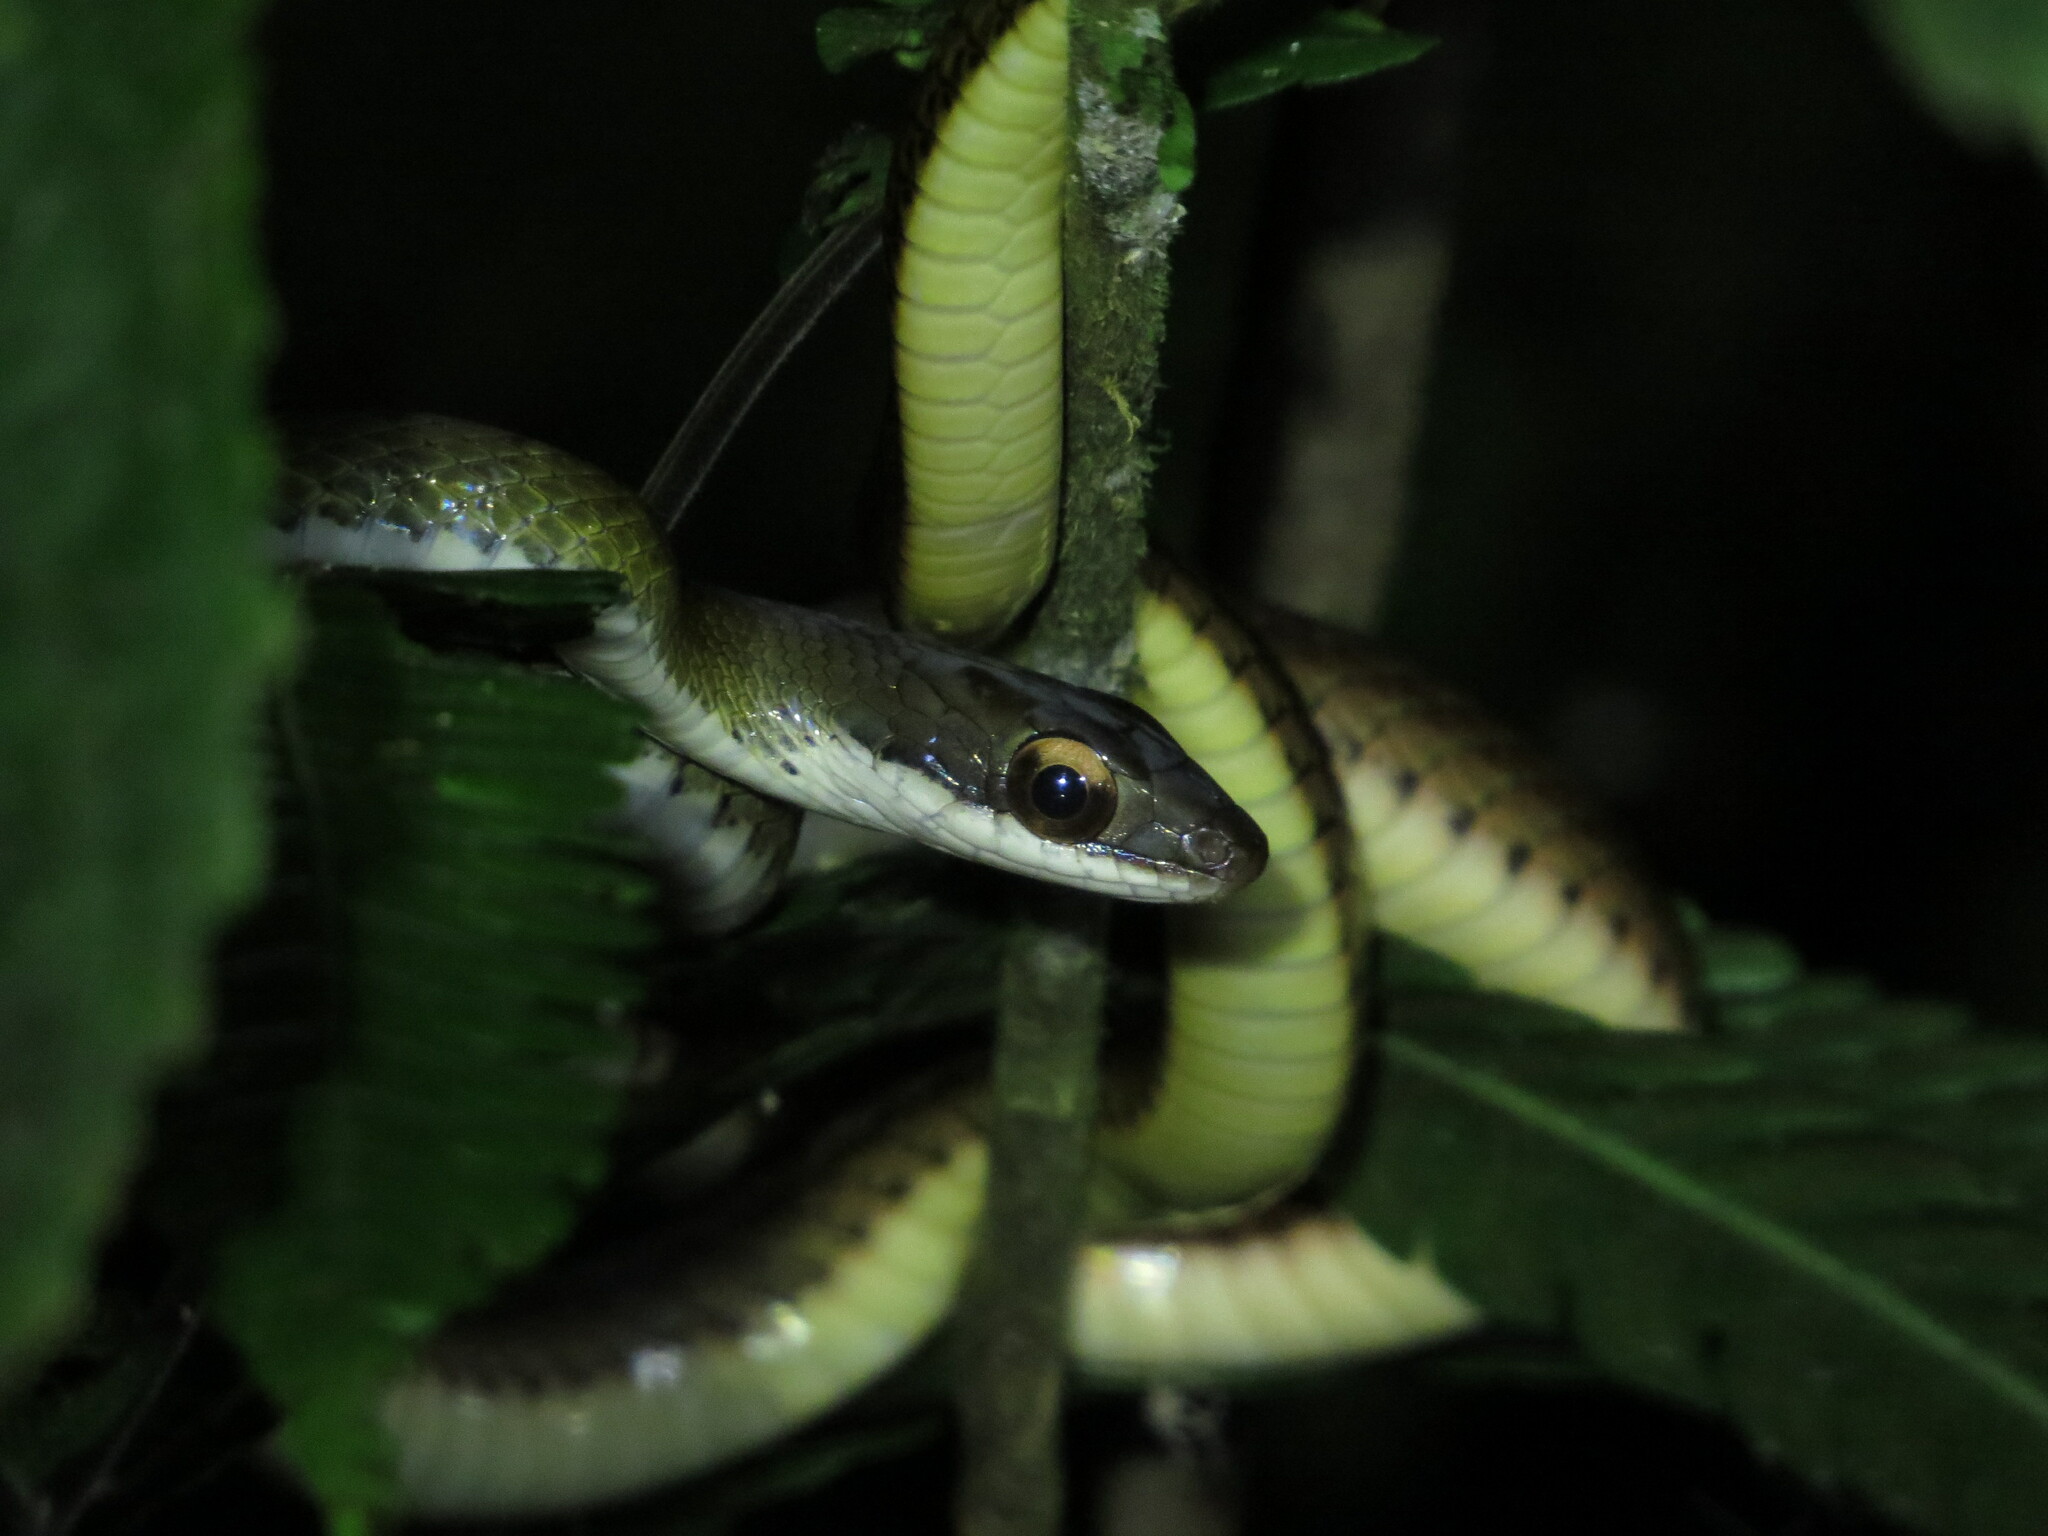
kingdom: Animalia
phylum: Chordata
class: Squamata
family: Colubridae
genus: Dendrophidion
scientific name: Dendrophidion percarinatum
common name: South american forest racer
